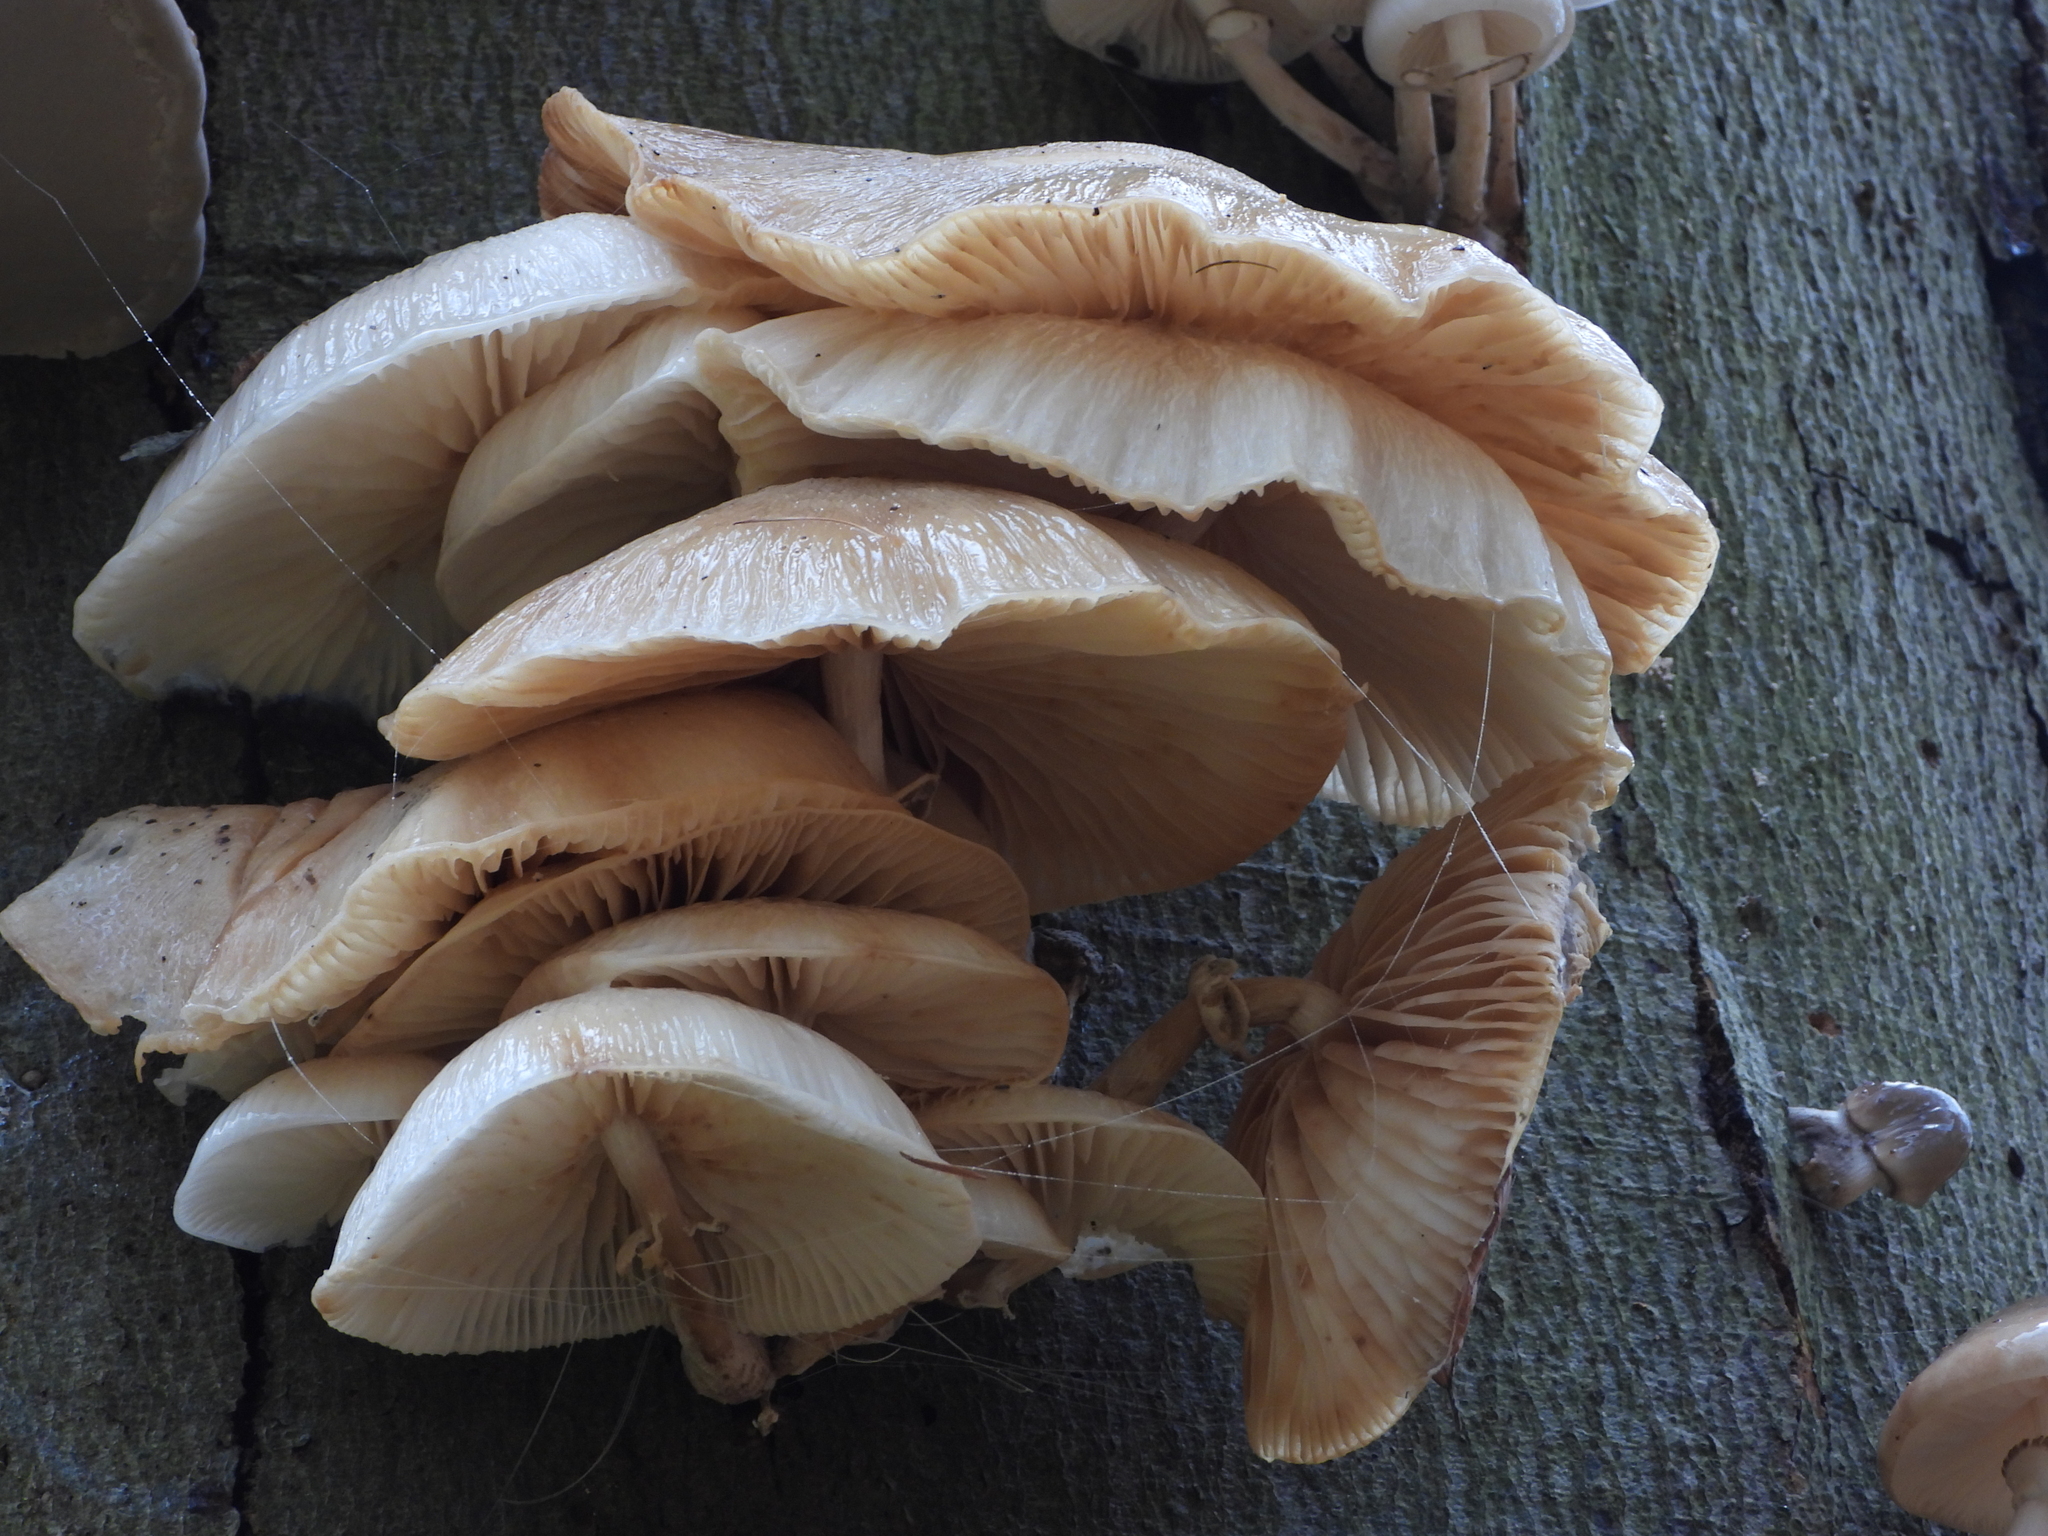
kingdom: Fungi
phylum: Basidiomycota
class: Agaricomycetes
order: Agaricales
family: Physalacriaceae
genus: Mucidula
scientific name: Mucidula mucida
